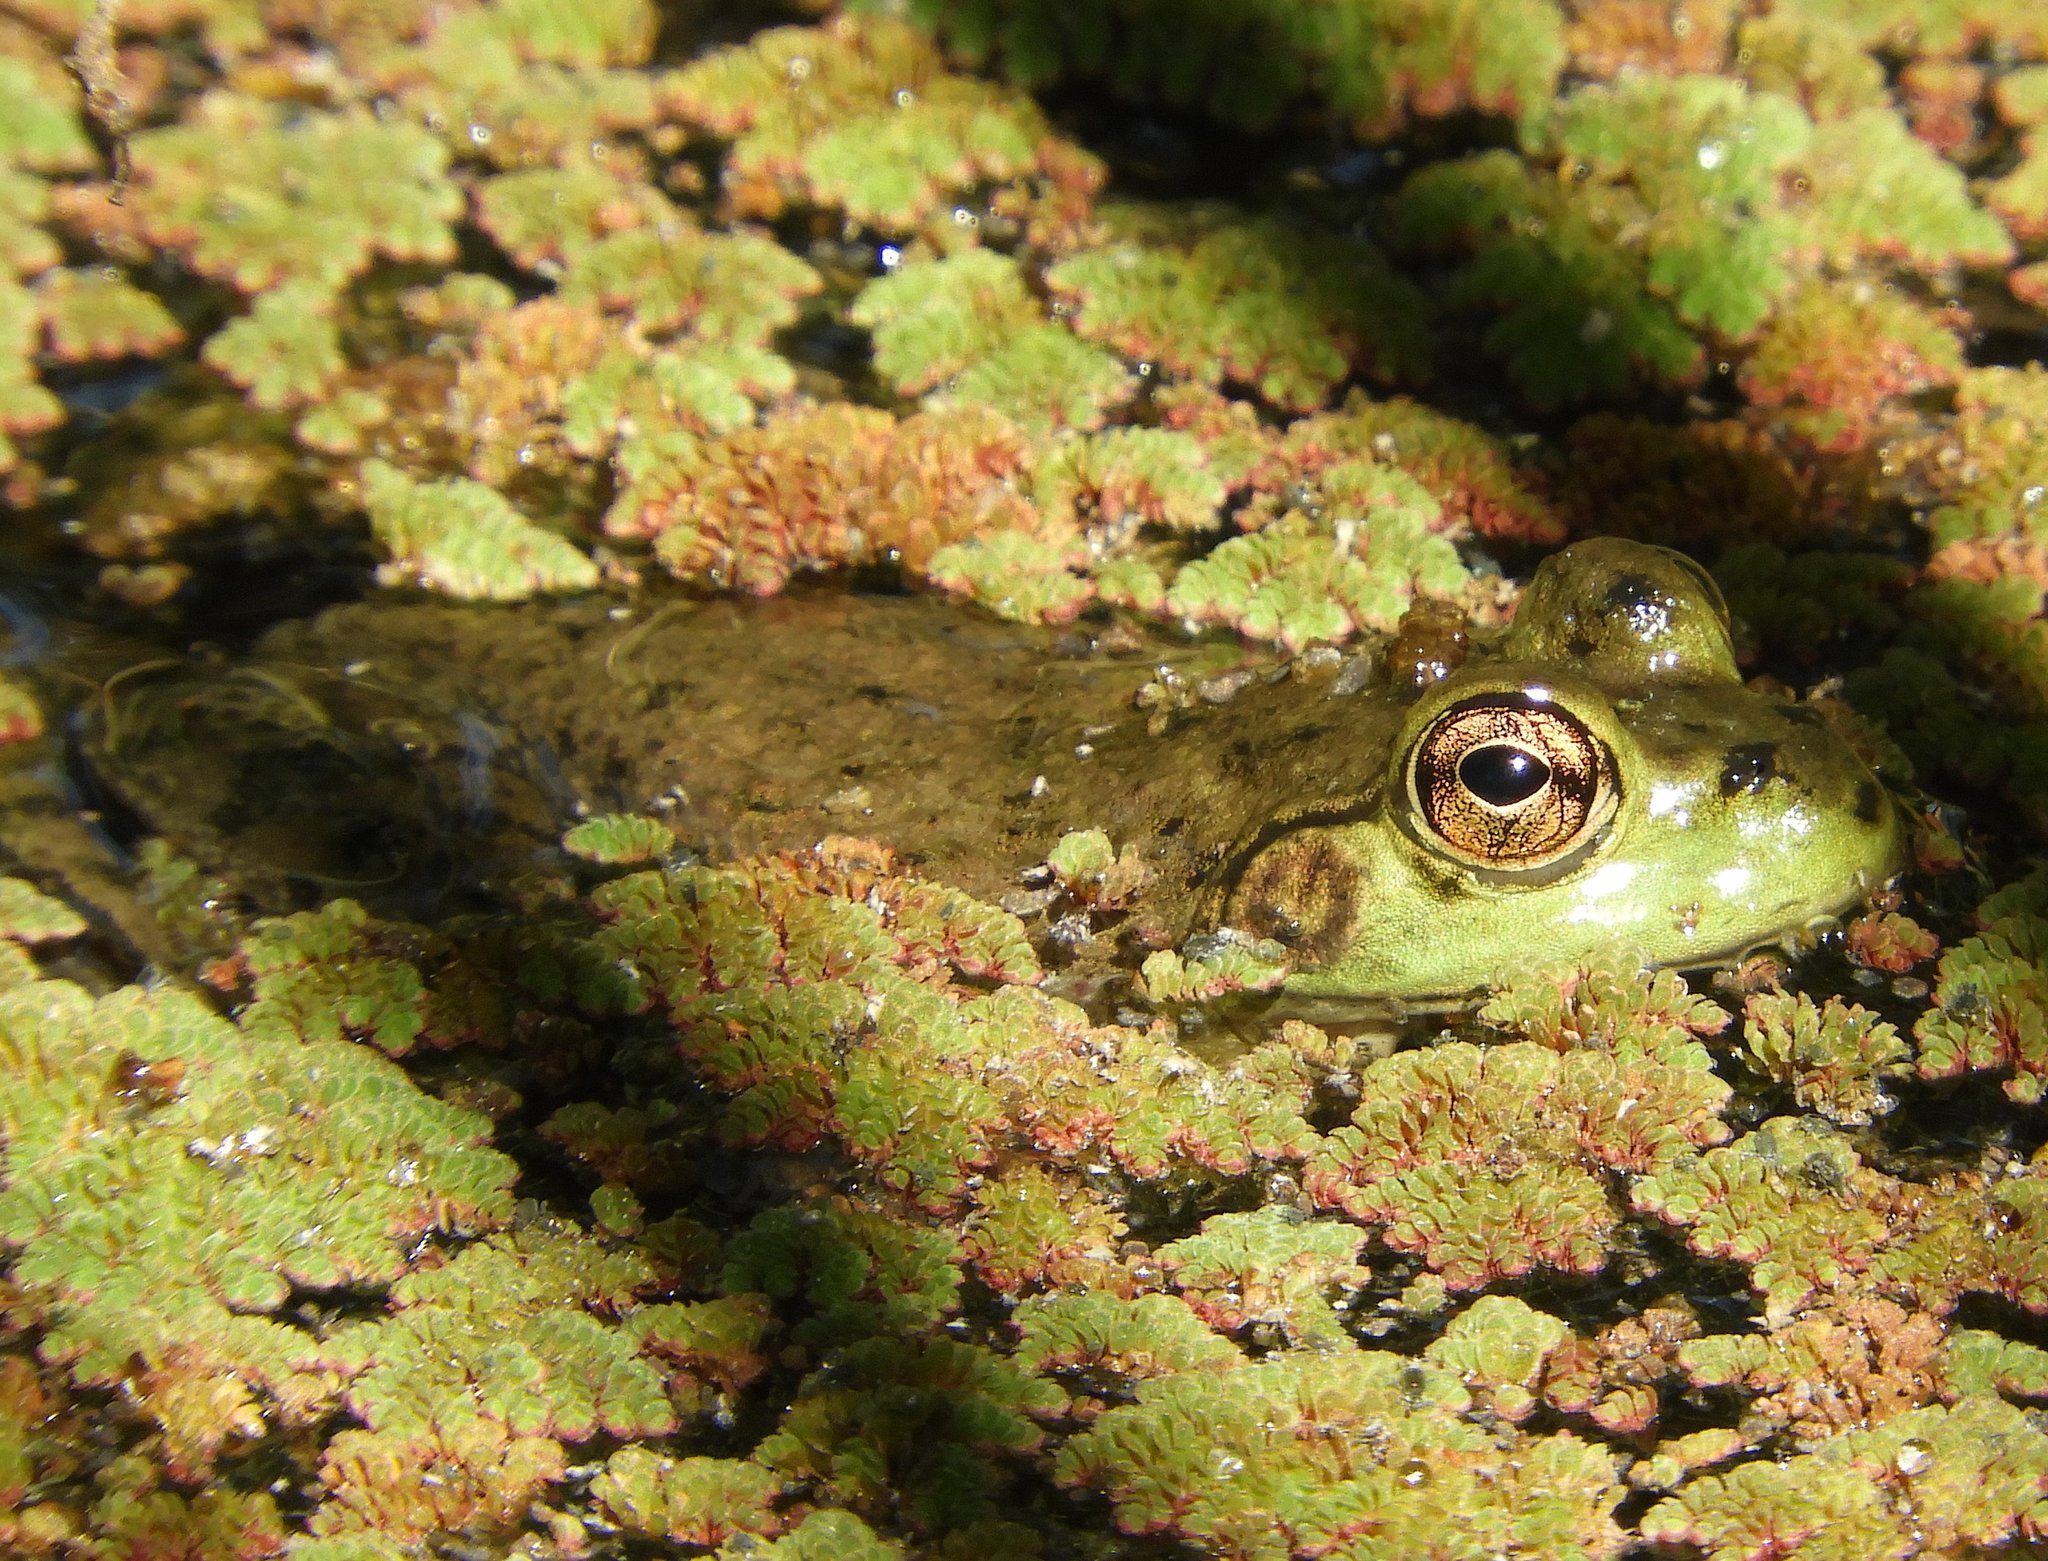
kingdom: Animalia
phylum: Chordata
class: Amphibia
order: Anura
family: Ranidae
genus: Lithobates
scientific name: Lithobates catesbeianus
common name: American bullfrog
